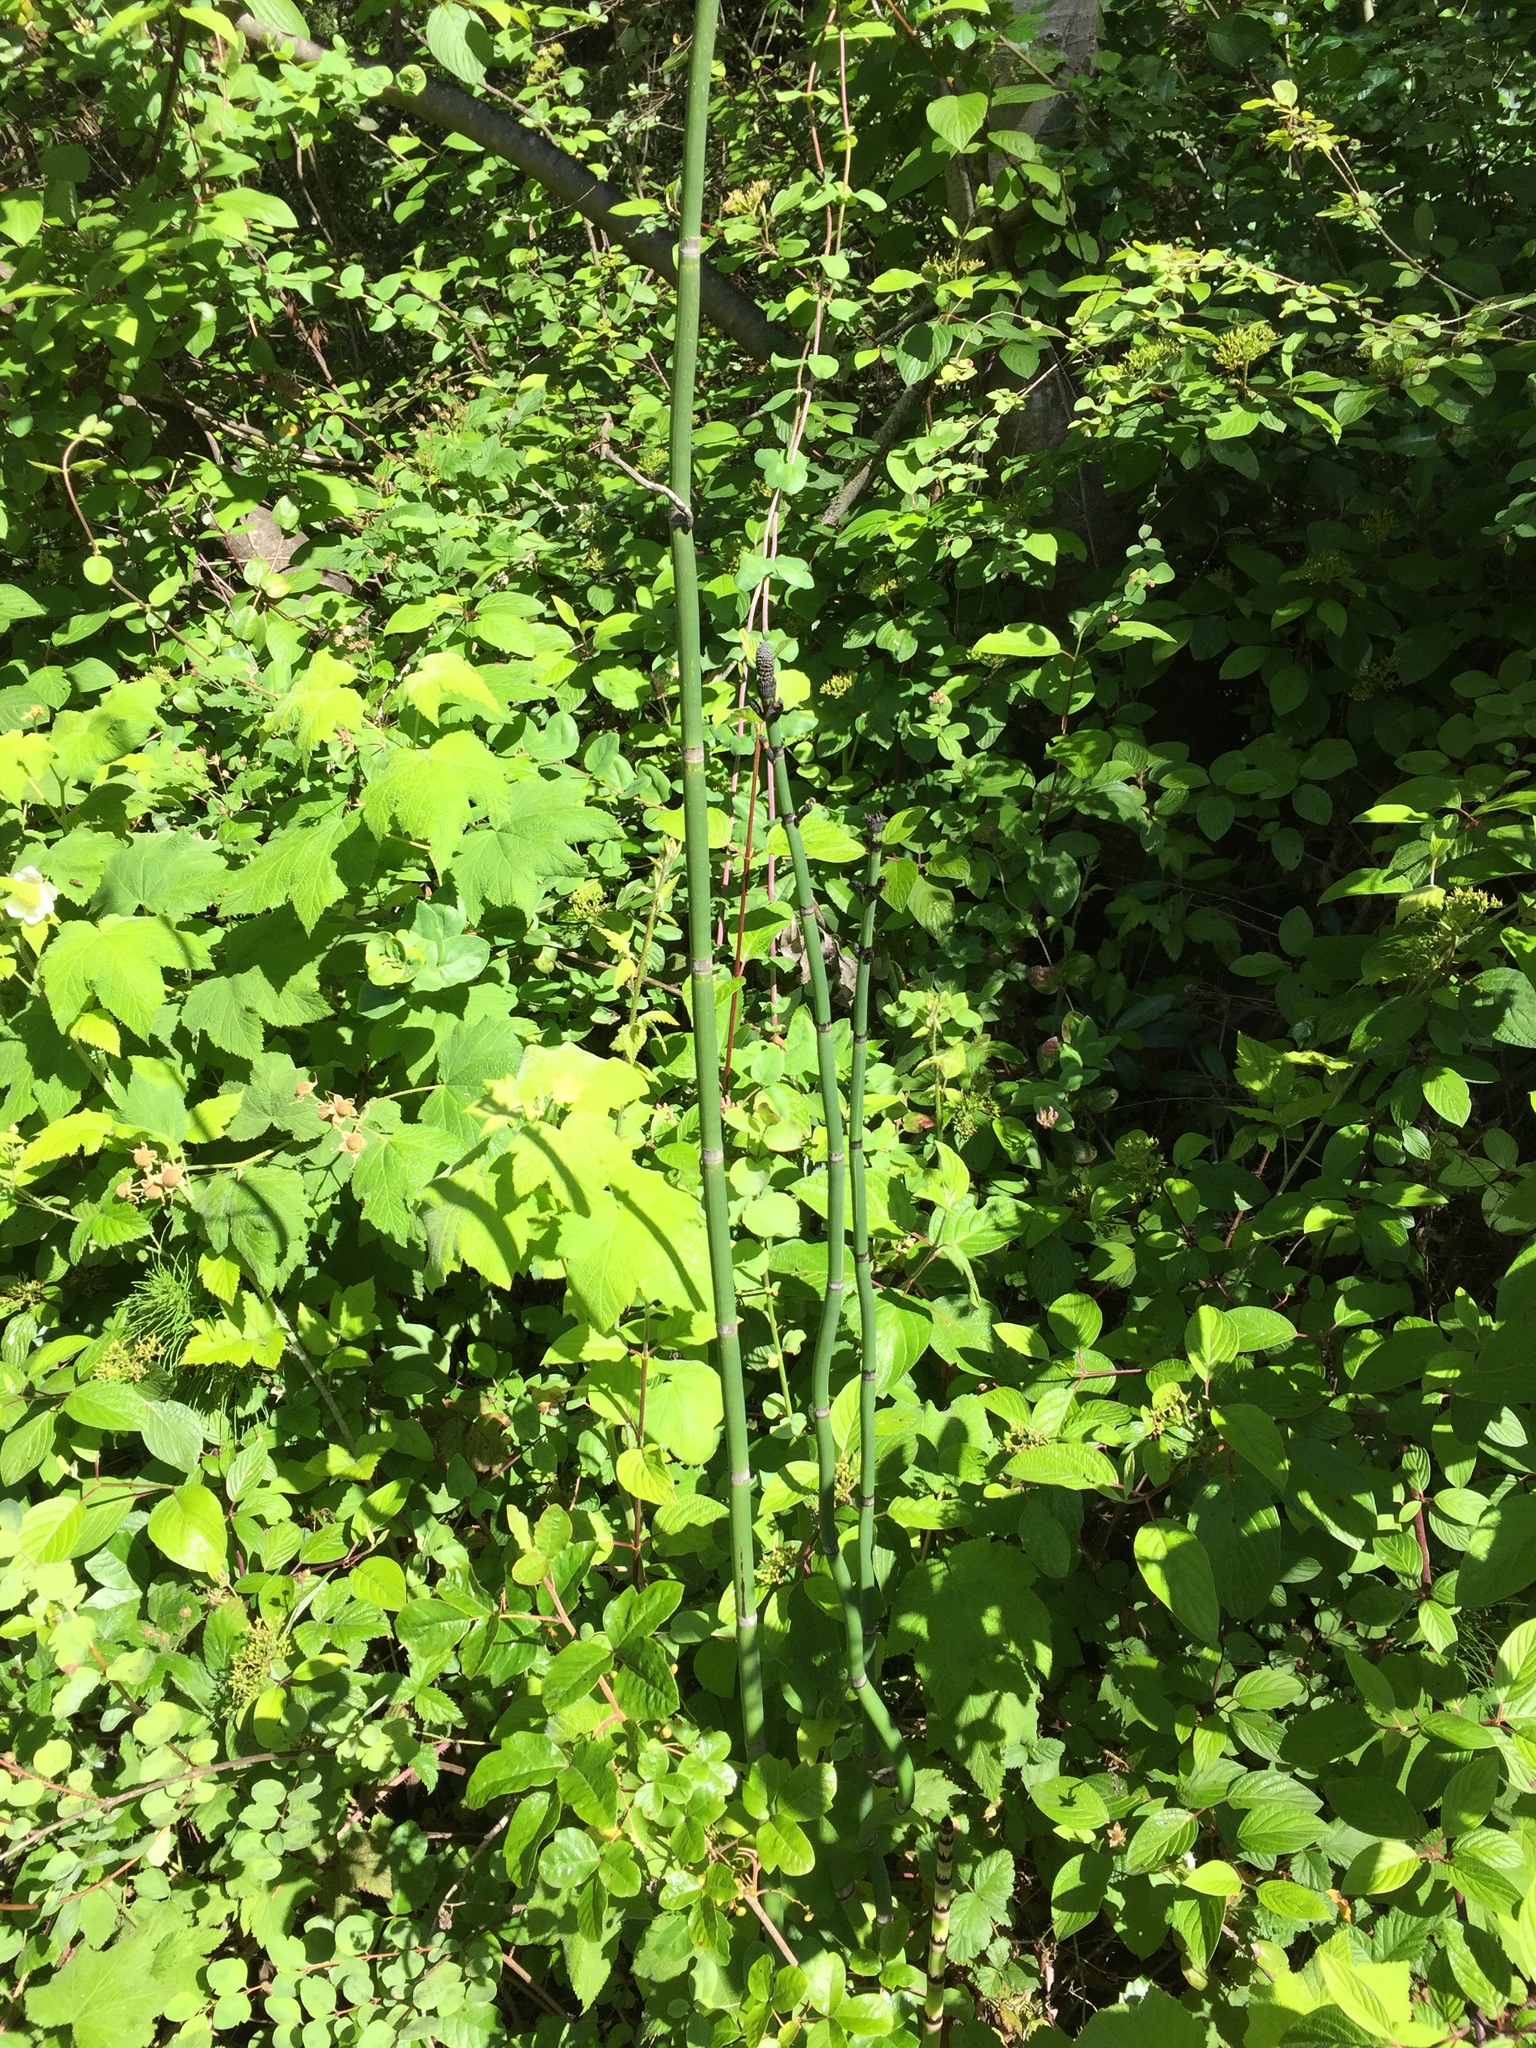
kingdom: Plantae
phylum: Tracheophyta
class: Polypodiopsida
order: Equisetales
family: Equisetaceae
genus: Equisetum
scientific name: Equisetum praealtum
